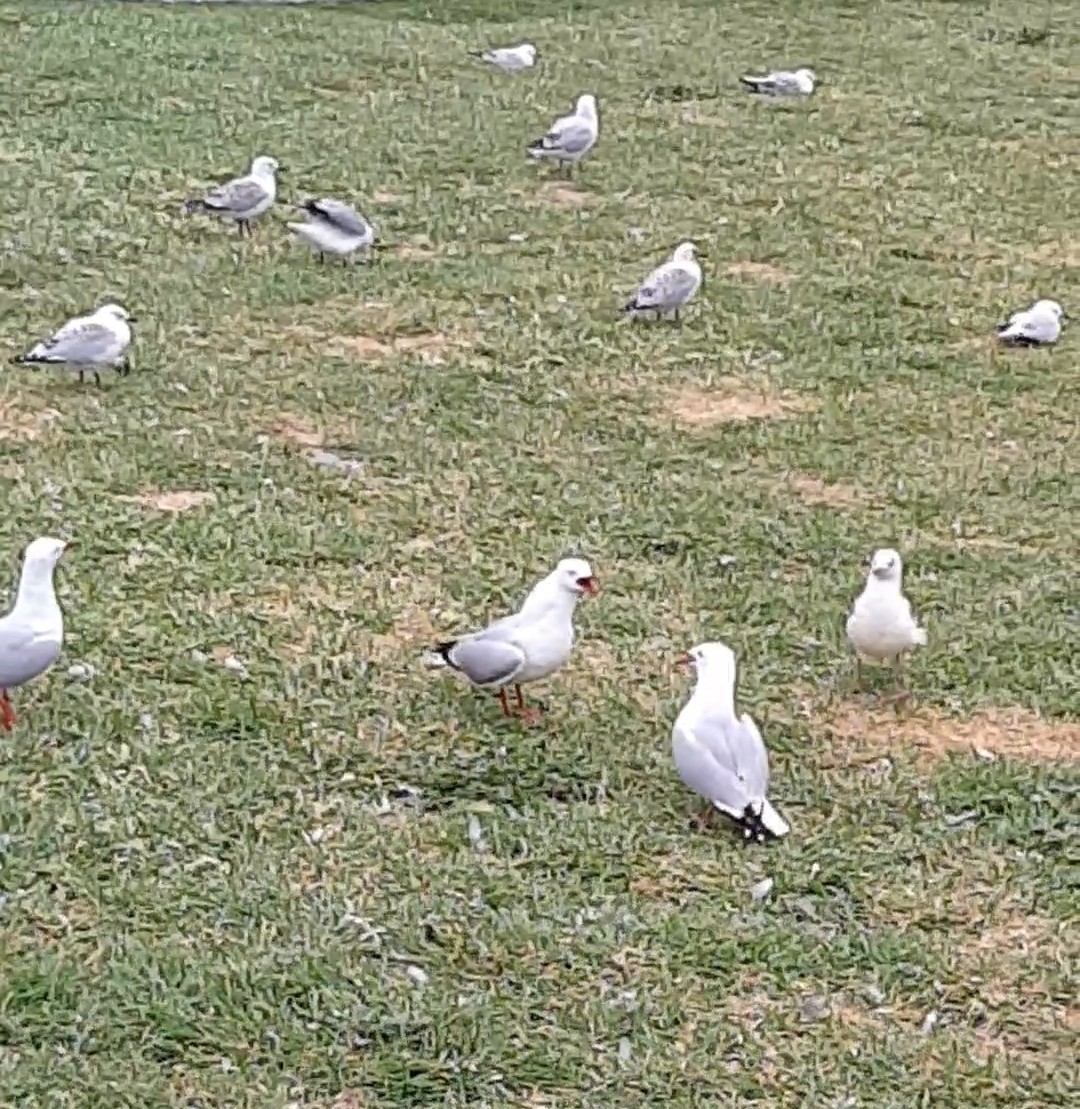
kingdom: Animalia
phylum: Chordata
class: Aves
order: Charadriiformes
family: Laridae
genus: Chroicocephalus
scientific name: Chroicocephalus novaehollandiae
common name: Silver gull
